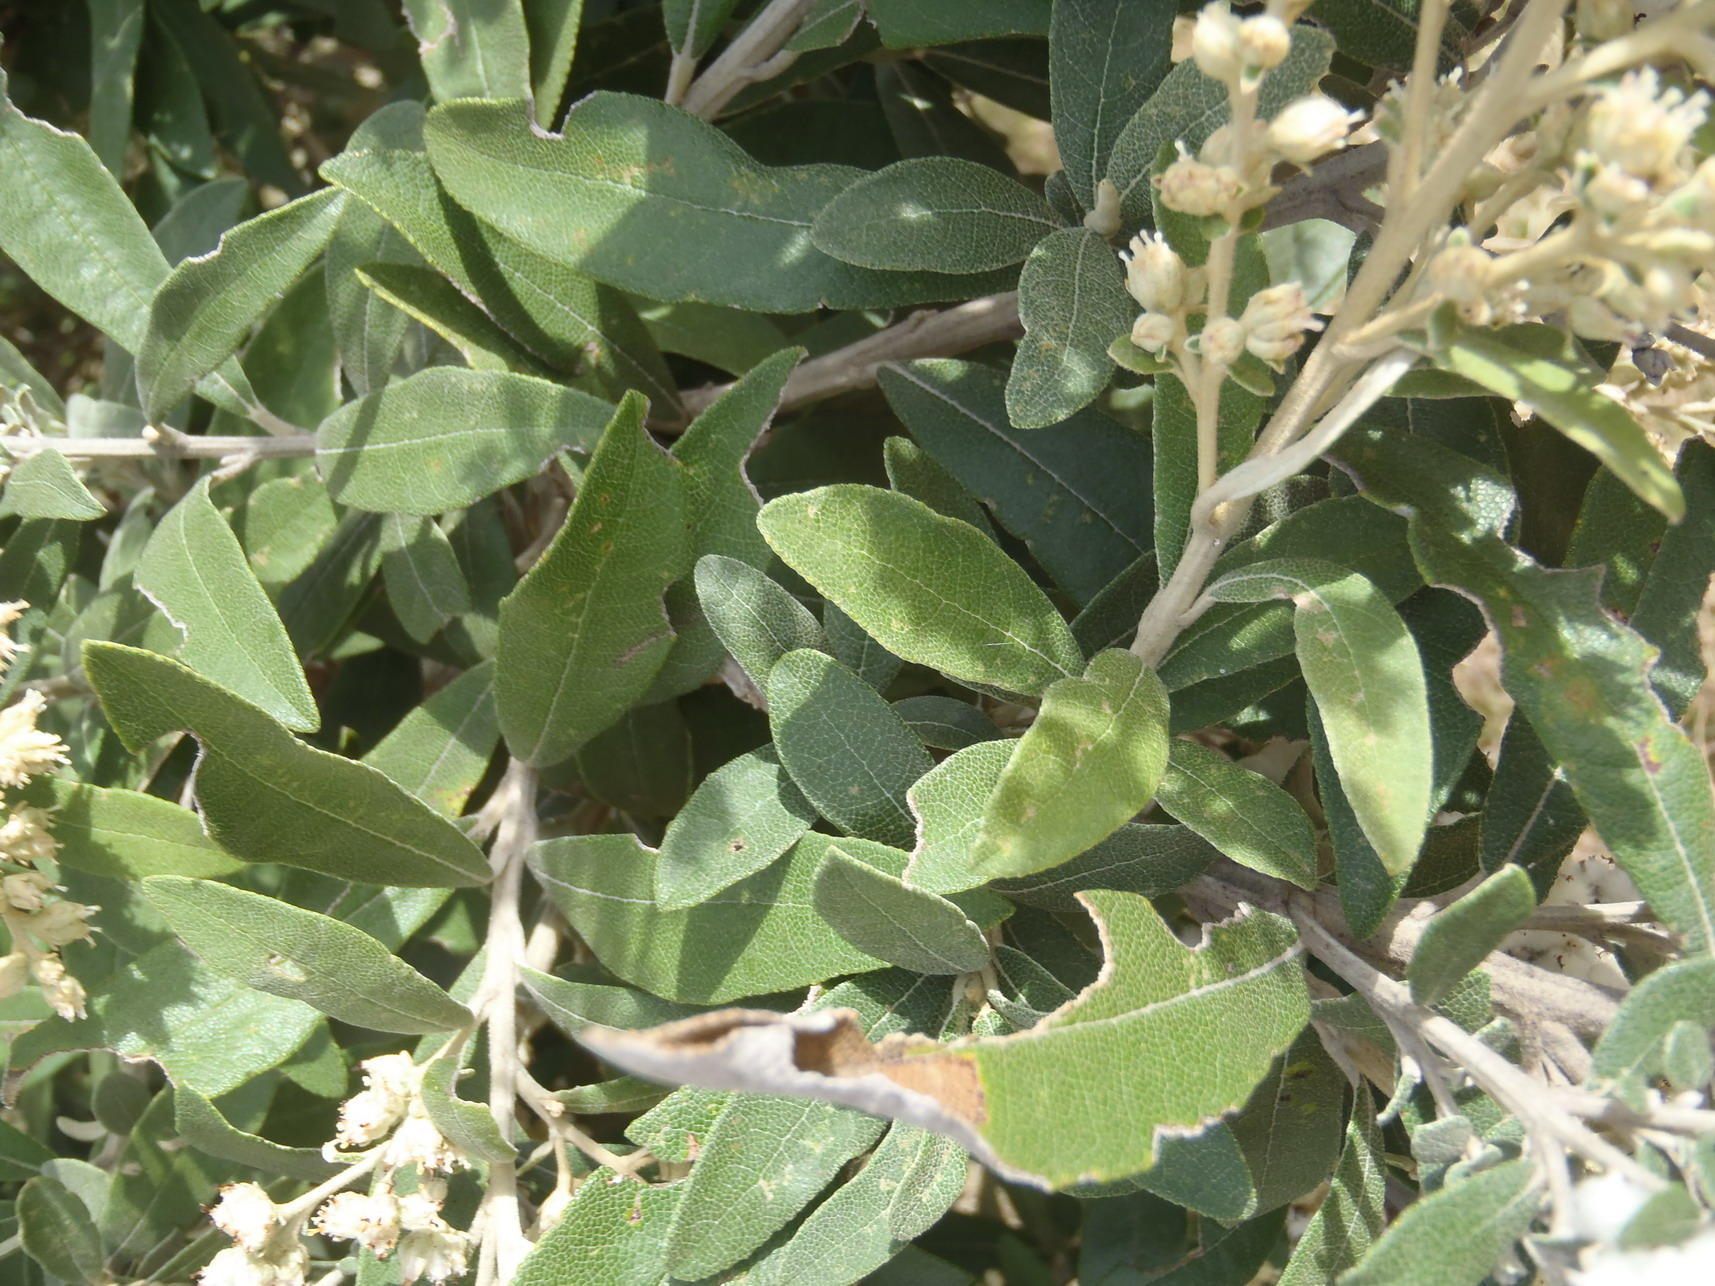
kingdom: Plantae
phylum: Tracheophyta
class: Magnoliopsida
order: Asterales
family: Asteraceae
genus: Tarchonanthus
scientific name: Tarchonanthus littoralis
